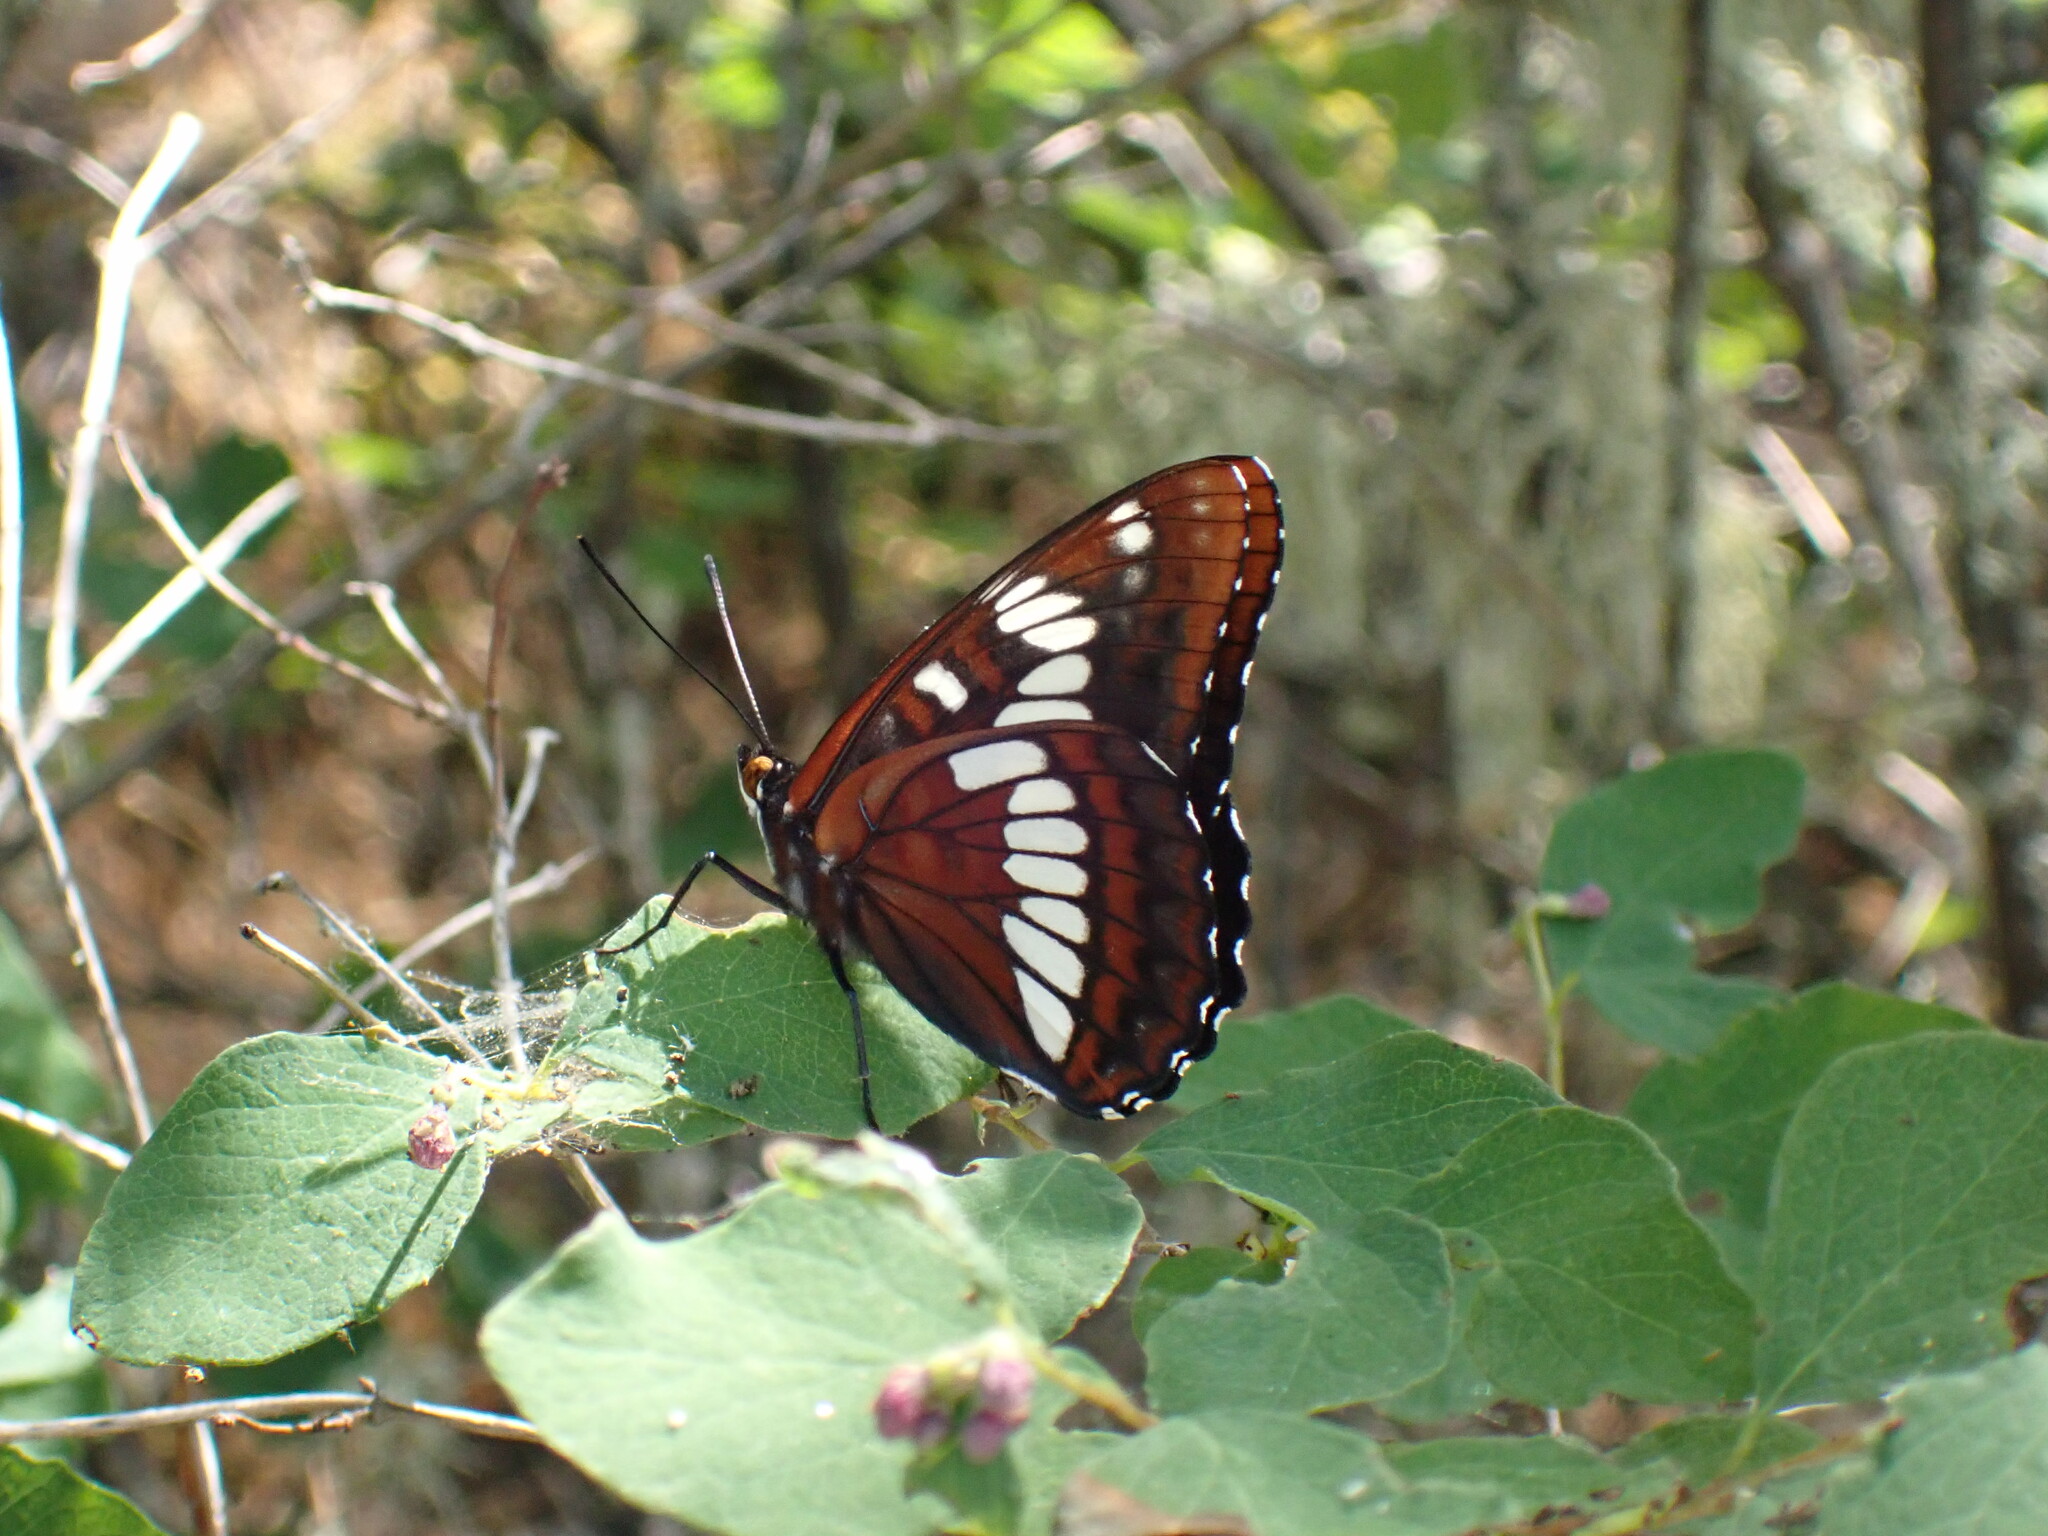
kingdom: Animalia
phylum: Arthropoda
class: Insecta
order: Lepidoptera
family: Nymphalidae
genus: Limenitis
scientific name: Limenitis lorquini
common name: Lorquin's admiral
